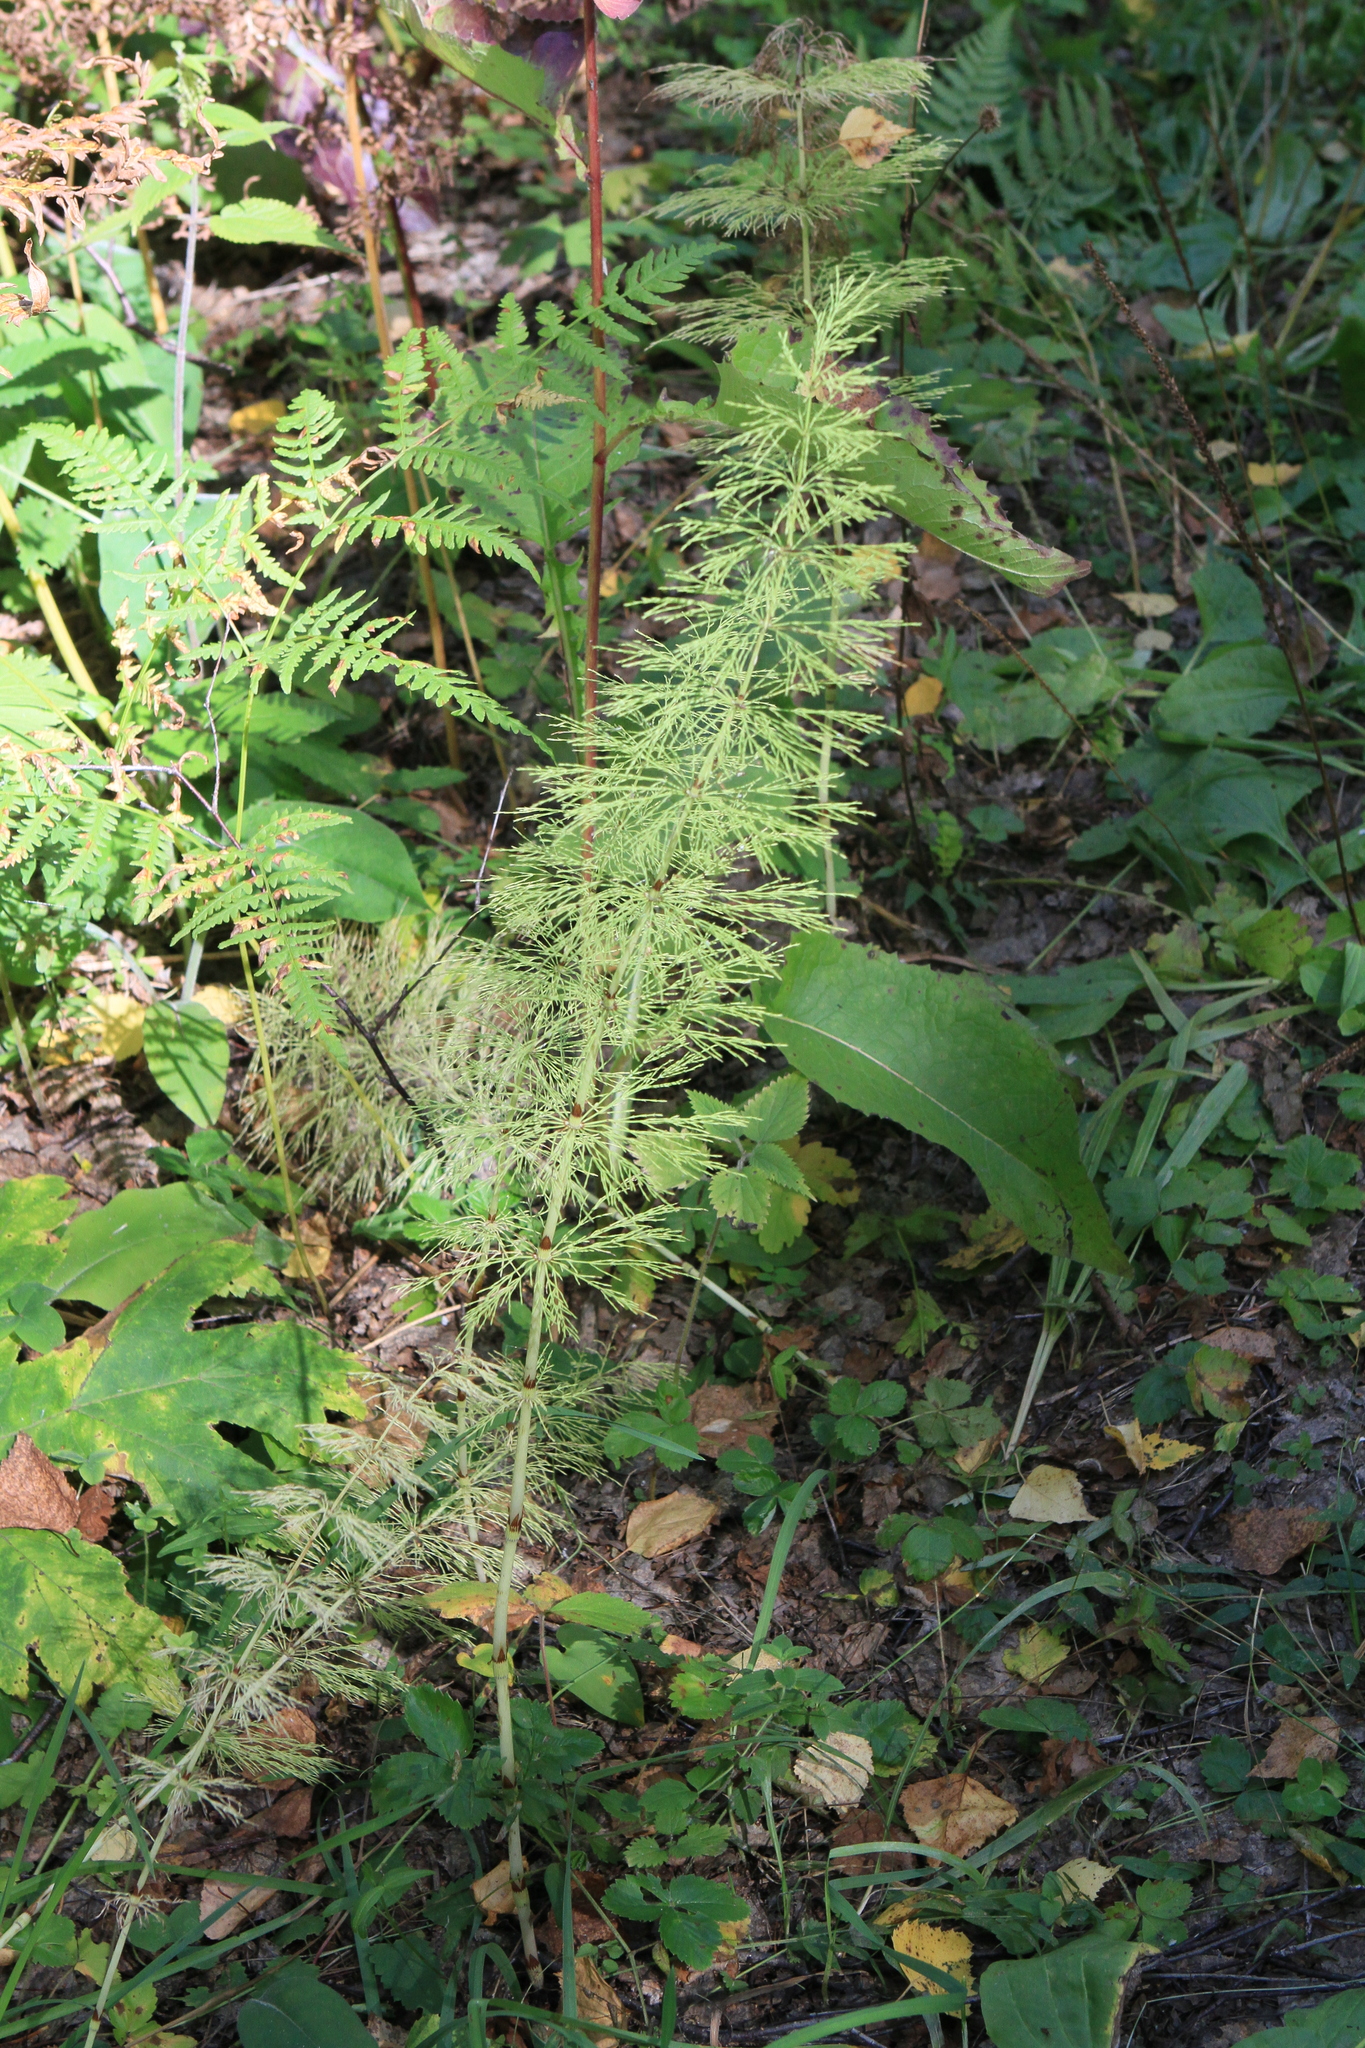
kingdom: Plantae
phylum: Tracheophyta
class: Polypodiopsida
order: Equisetales
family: Equisetaceae
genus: Equisetum
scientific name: Equisetum sylvaticum
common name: Wood horsetail
